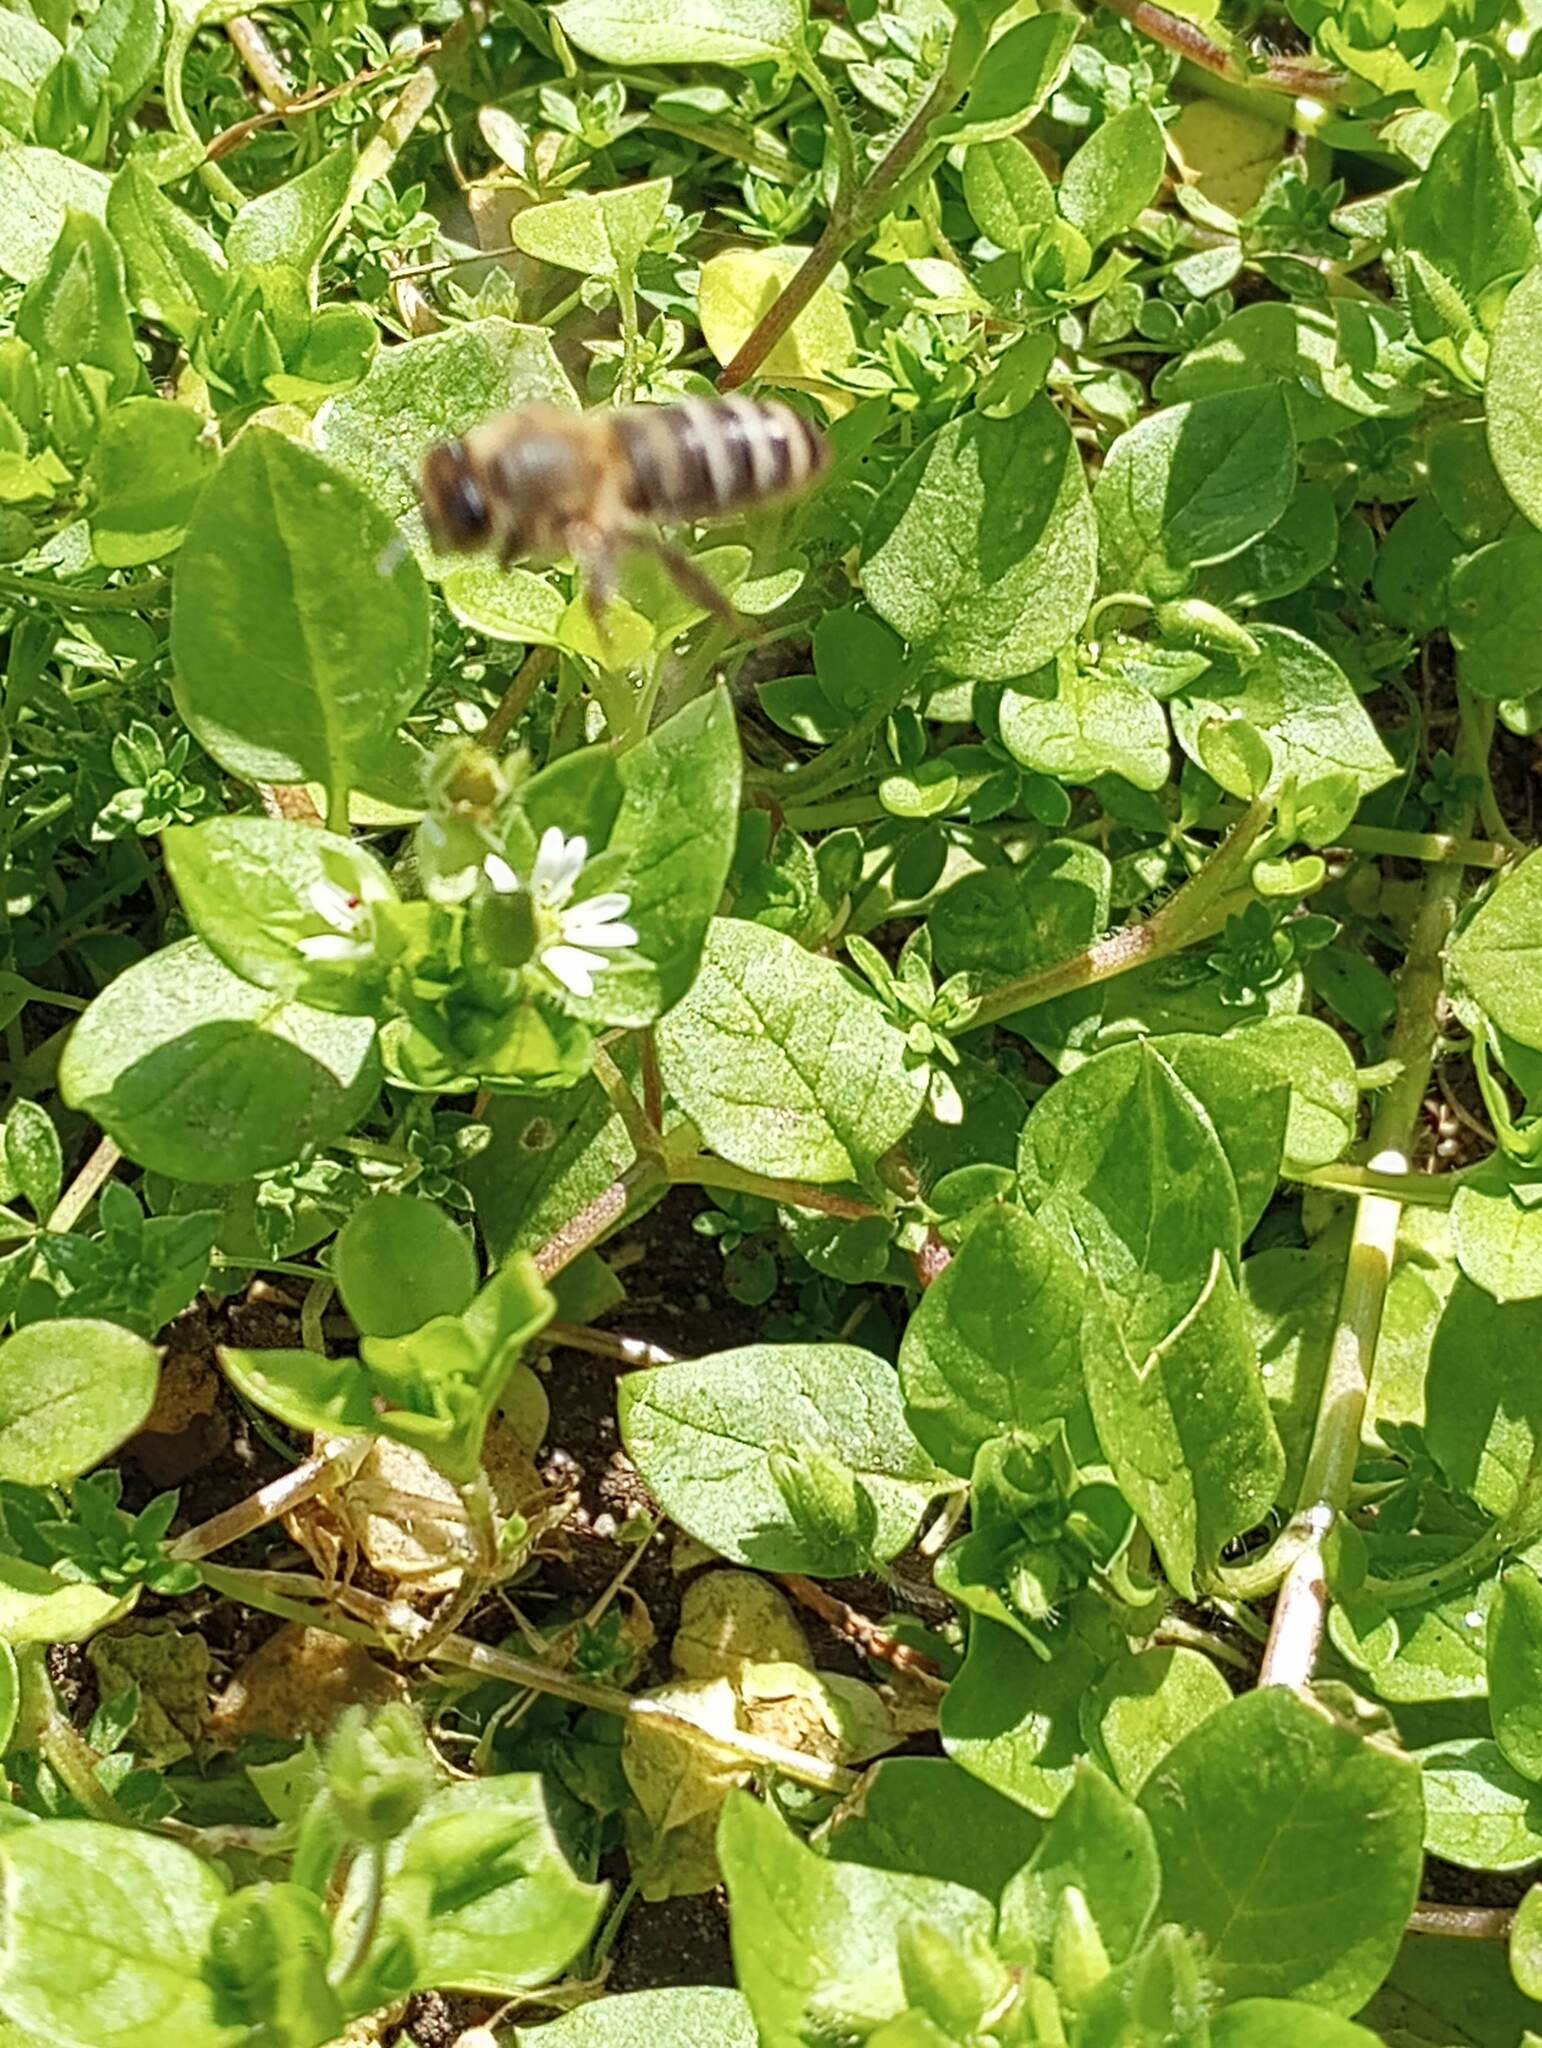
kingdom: Animalia
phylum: Arthropoda
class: Insecta
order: Hymenoptera
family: Apidae
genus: Apis
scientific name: Apis mellifera
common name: Honey bee
